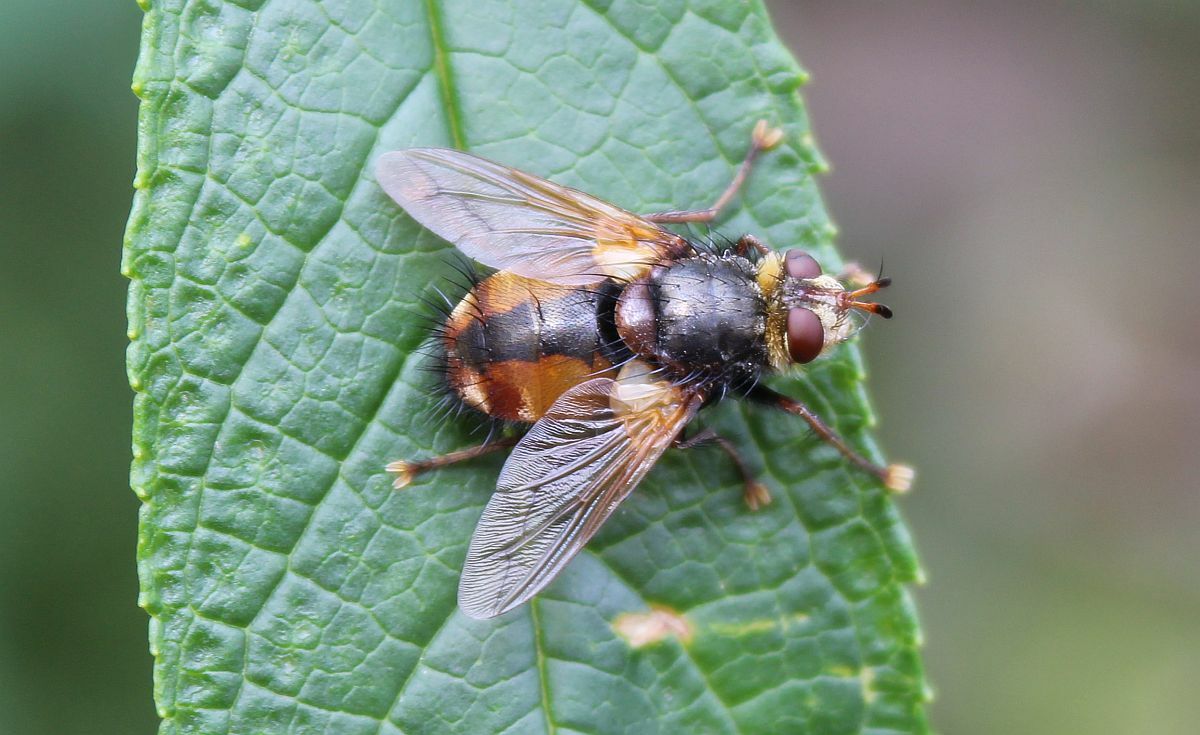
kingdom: Animalia
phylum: Arthropoda
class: Insecta
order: Diptera
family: Tachinidae
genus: Tachina
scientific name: Tachina fera
